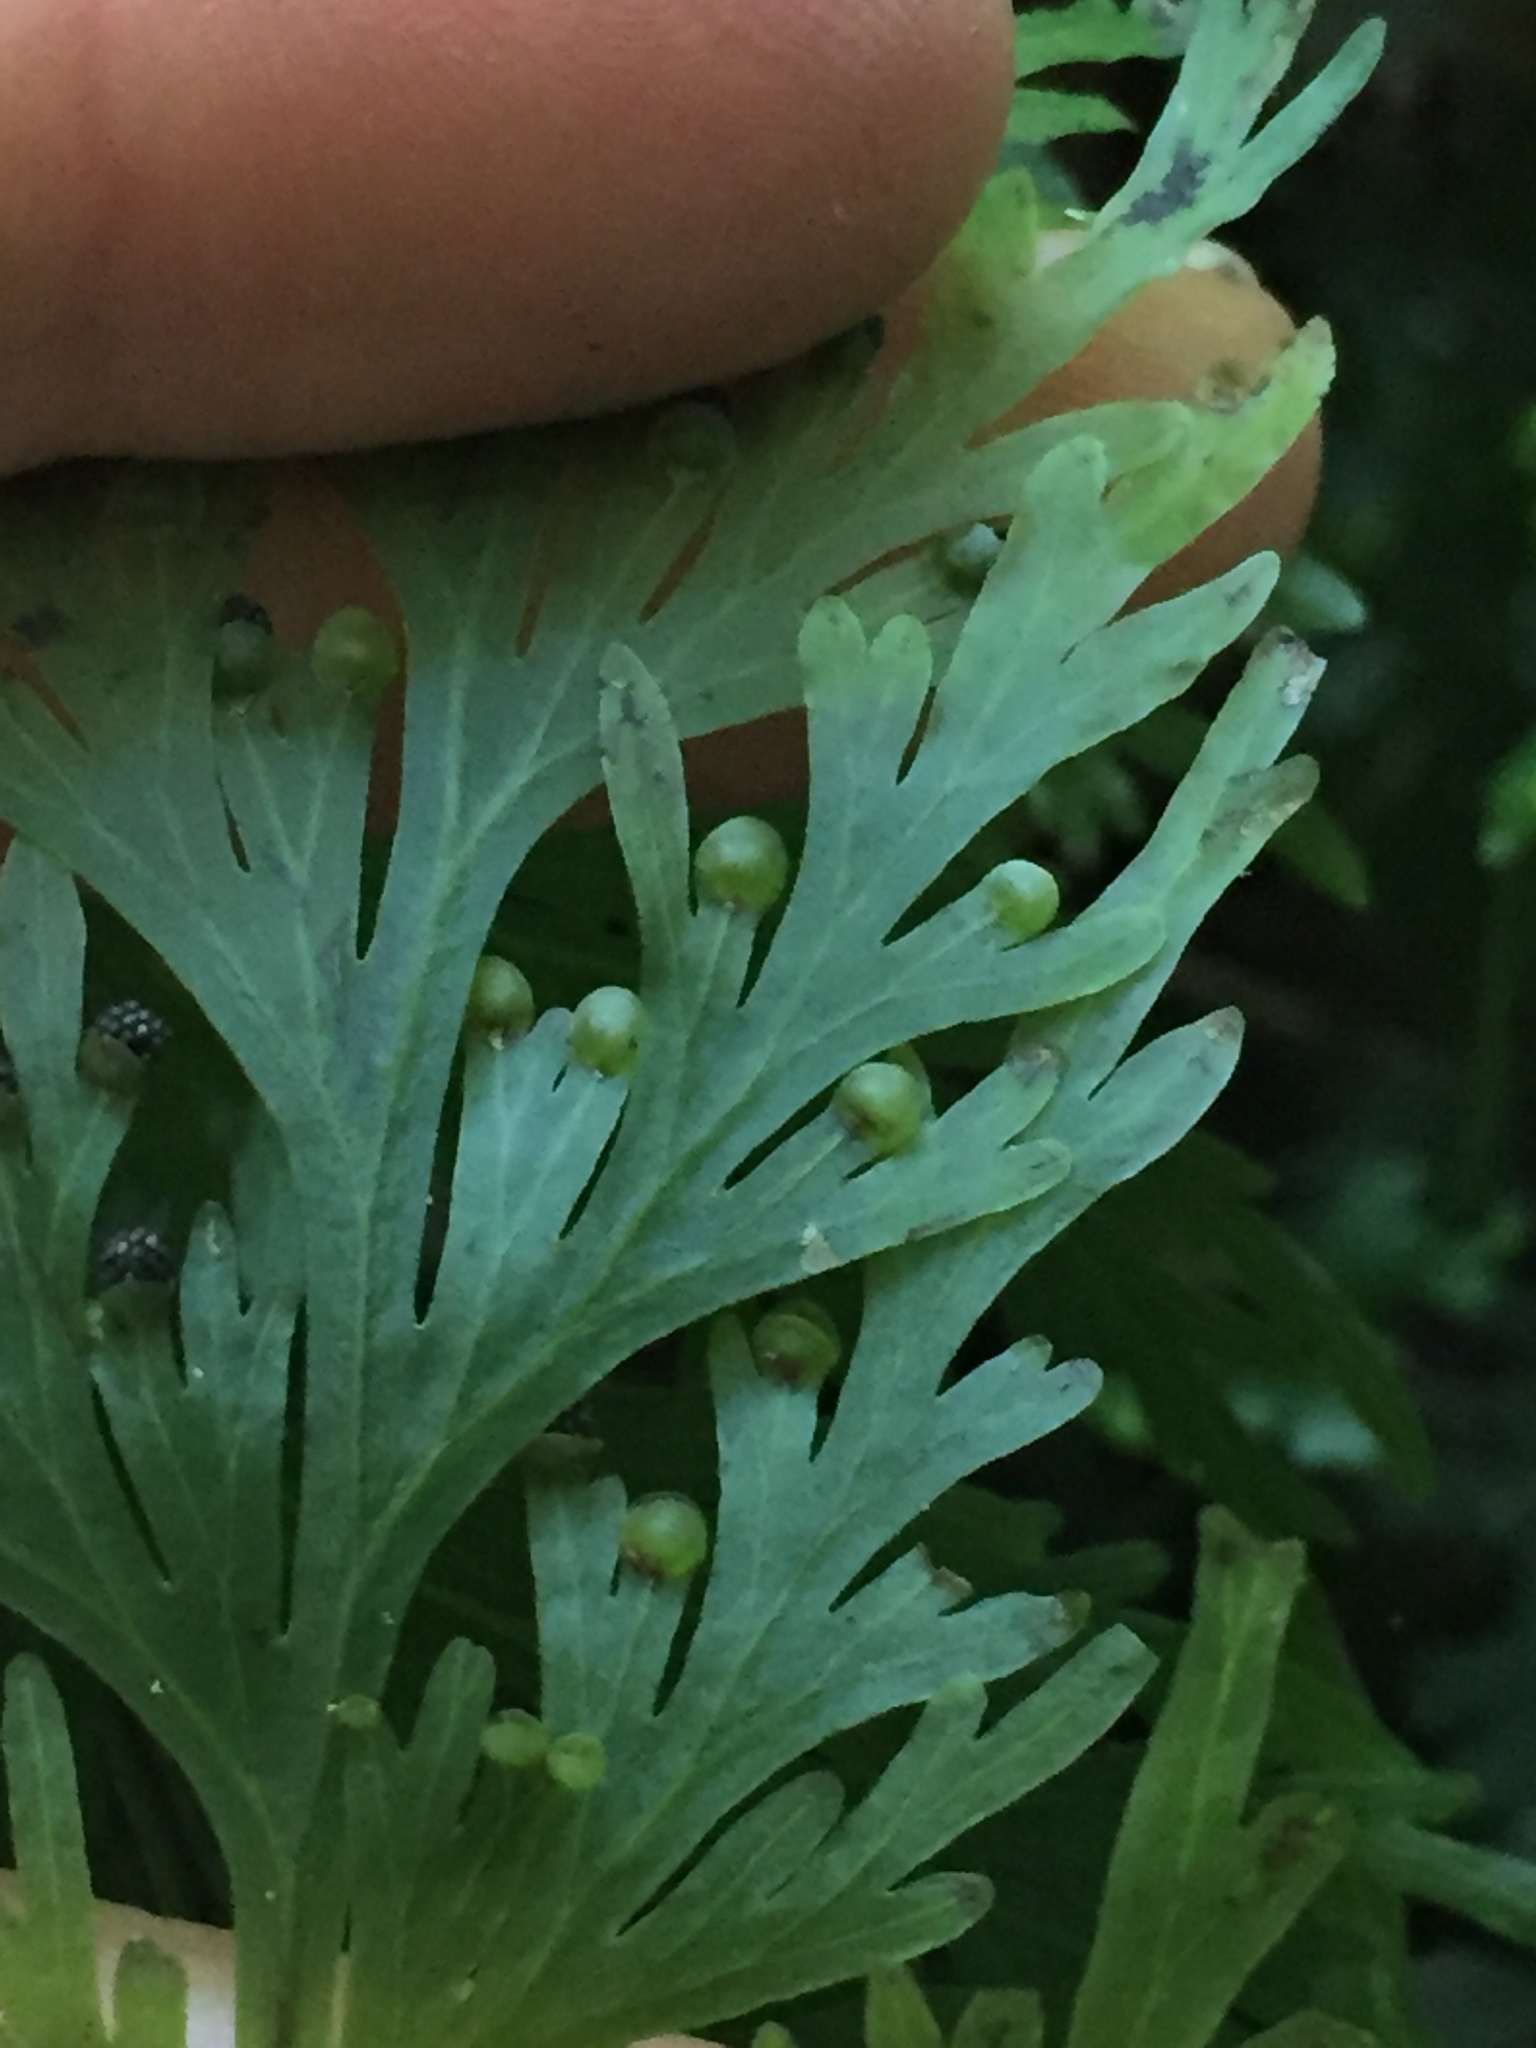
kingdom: Plantae
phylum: Tracheophyta
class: Polypodiopsida
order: Hymenophyllales
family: Hymenophyllaceae
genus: Hymenophyllum
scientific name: Hymenophyllum dilatatum
